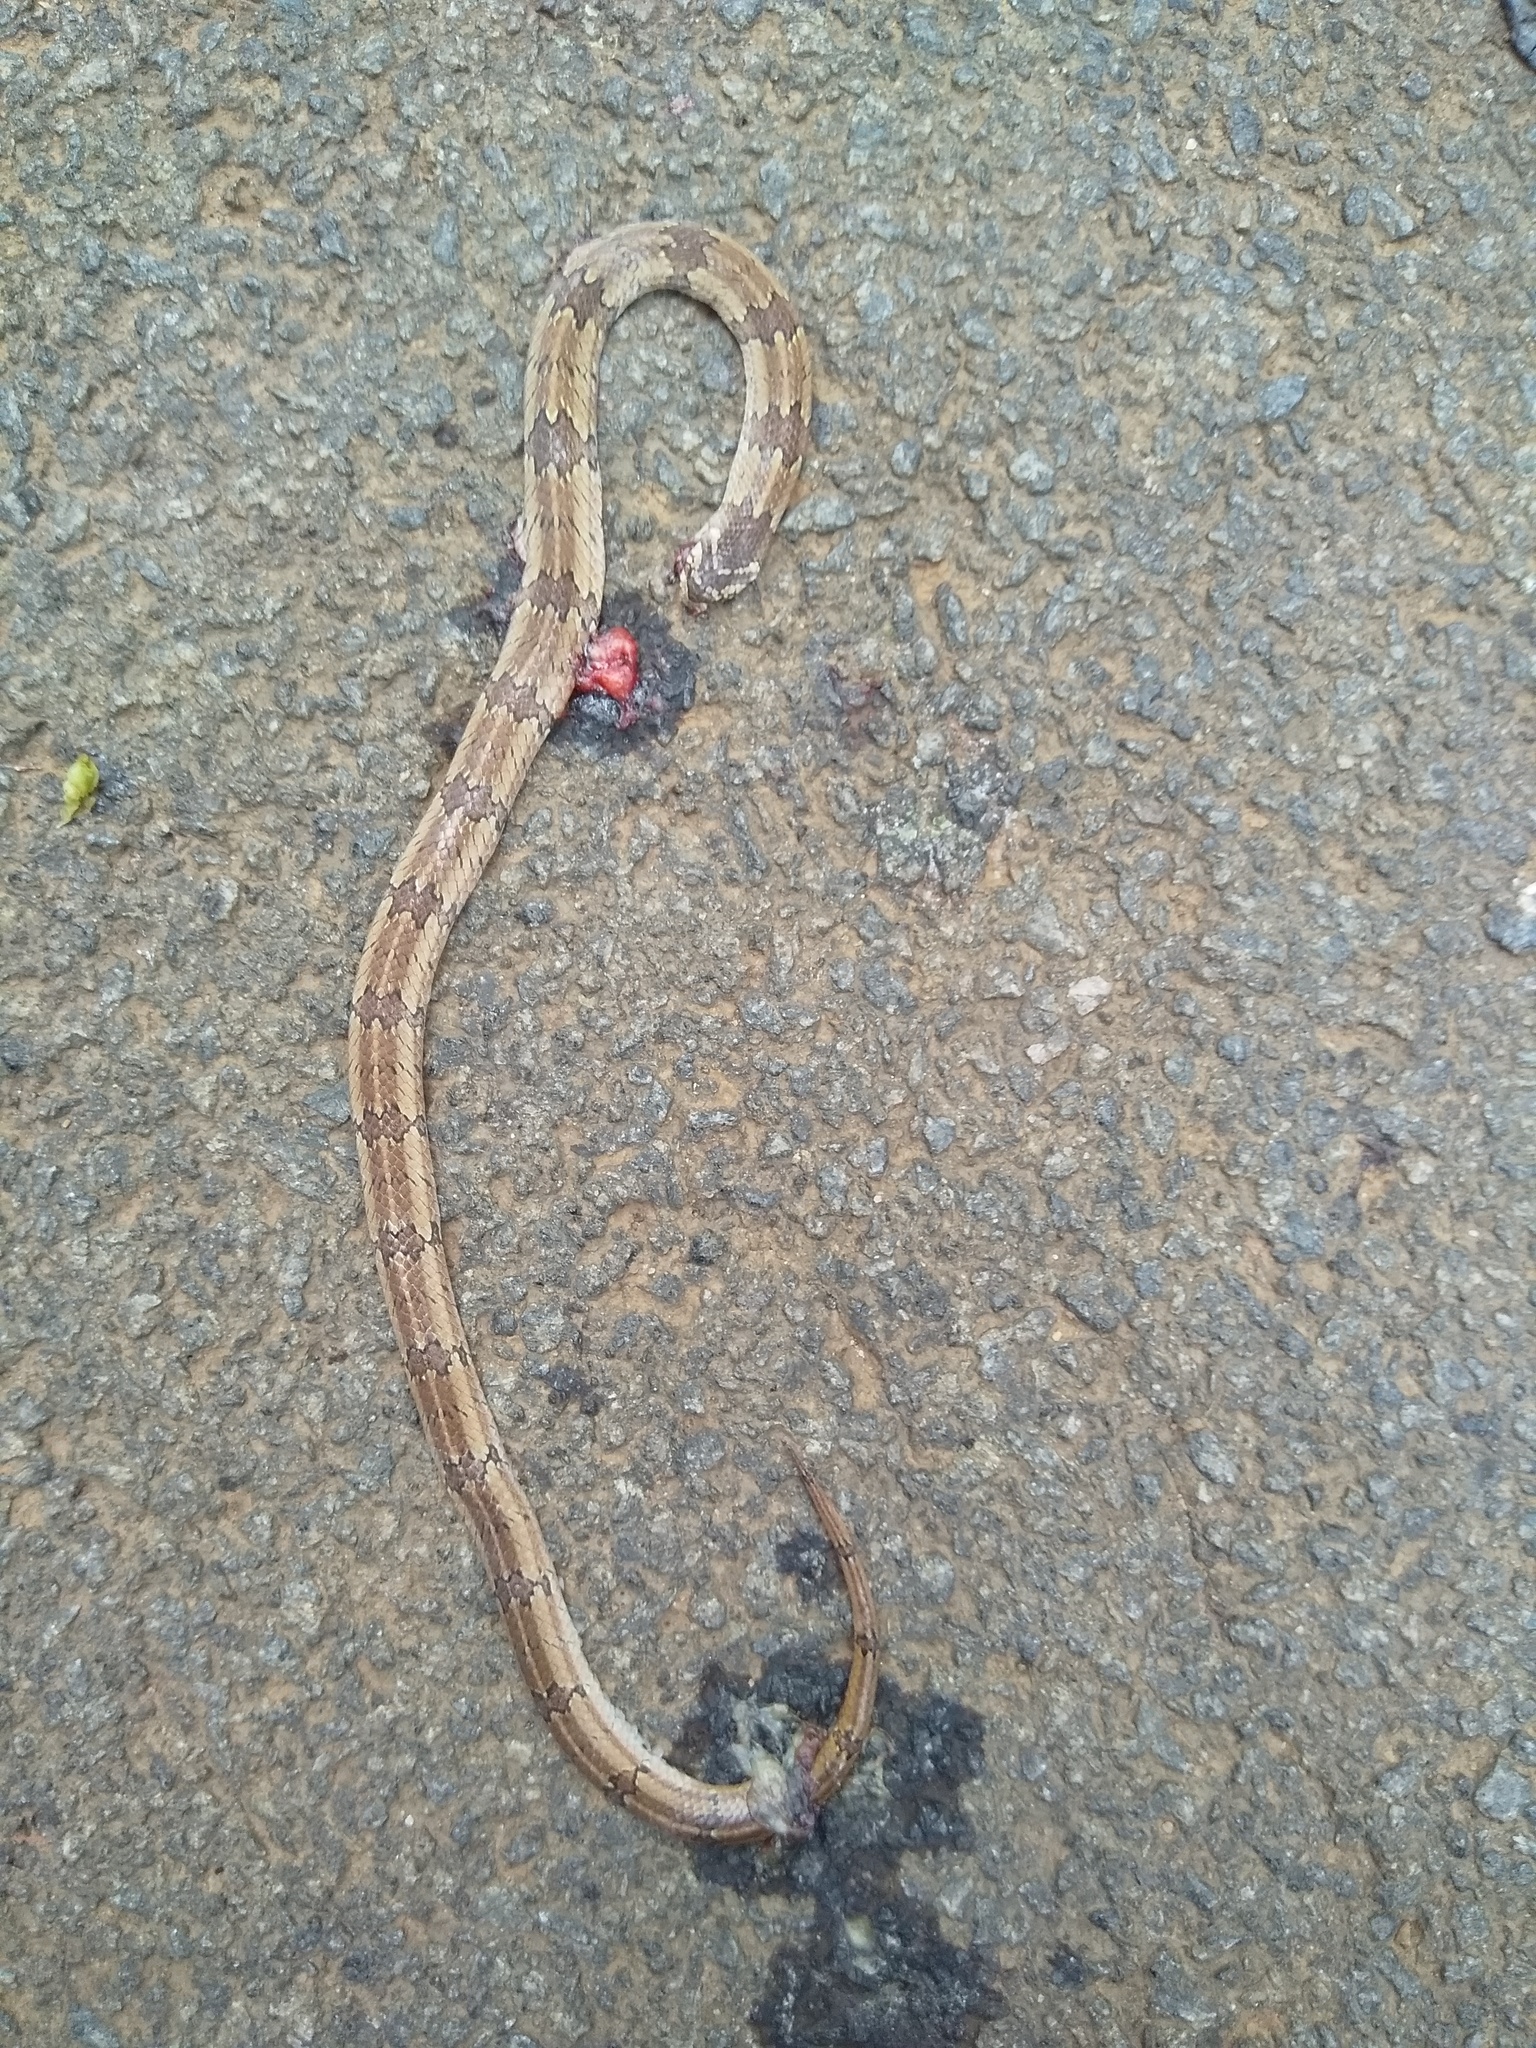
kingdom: Animalia
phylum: Chordata
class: Squamata
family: Colubridae
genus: Oligodon
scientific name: Oligodon taeniolatus
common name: Loos snake
